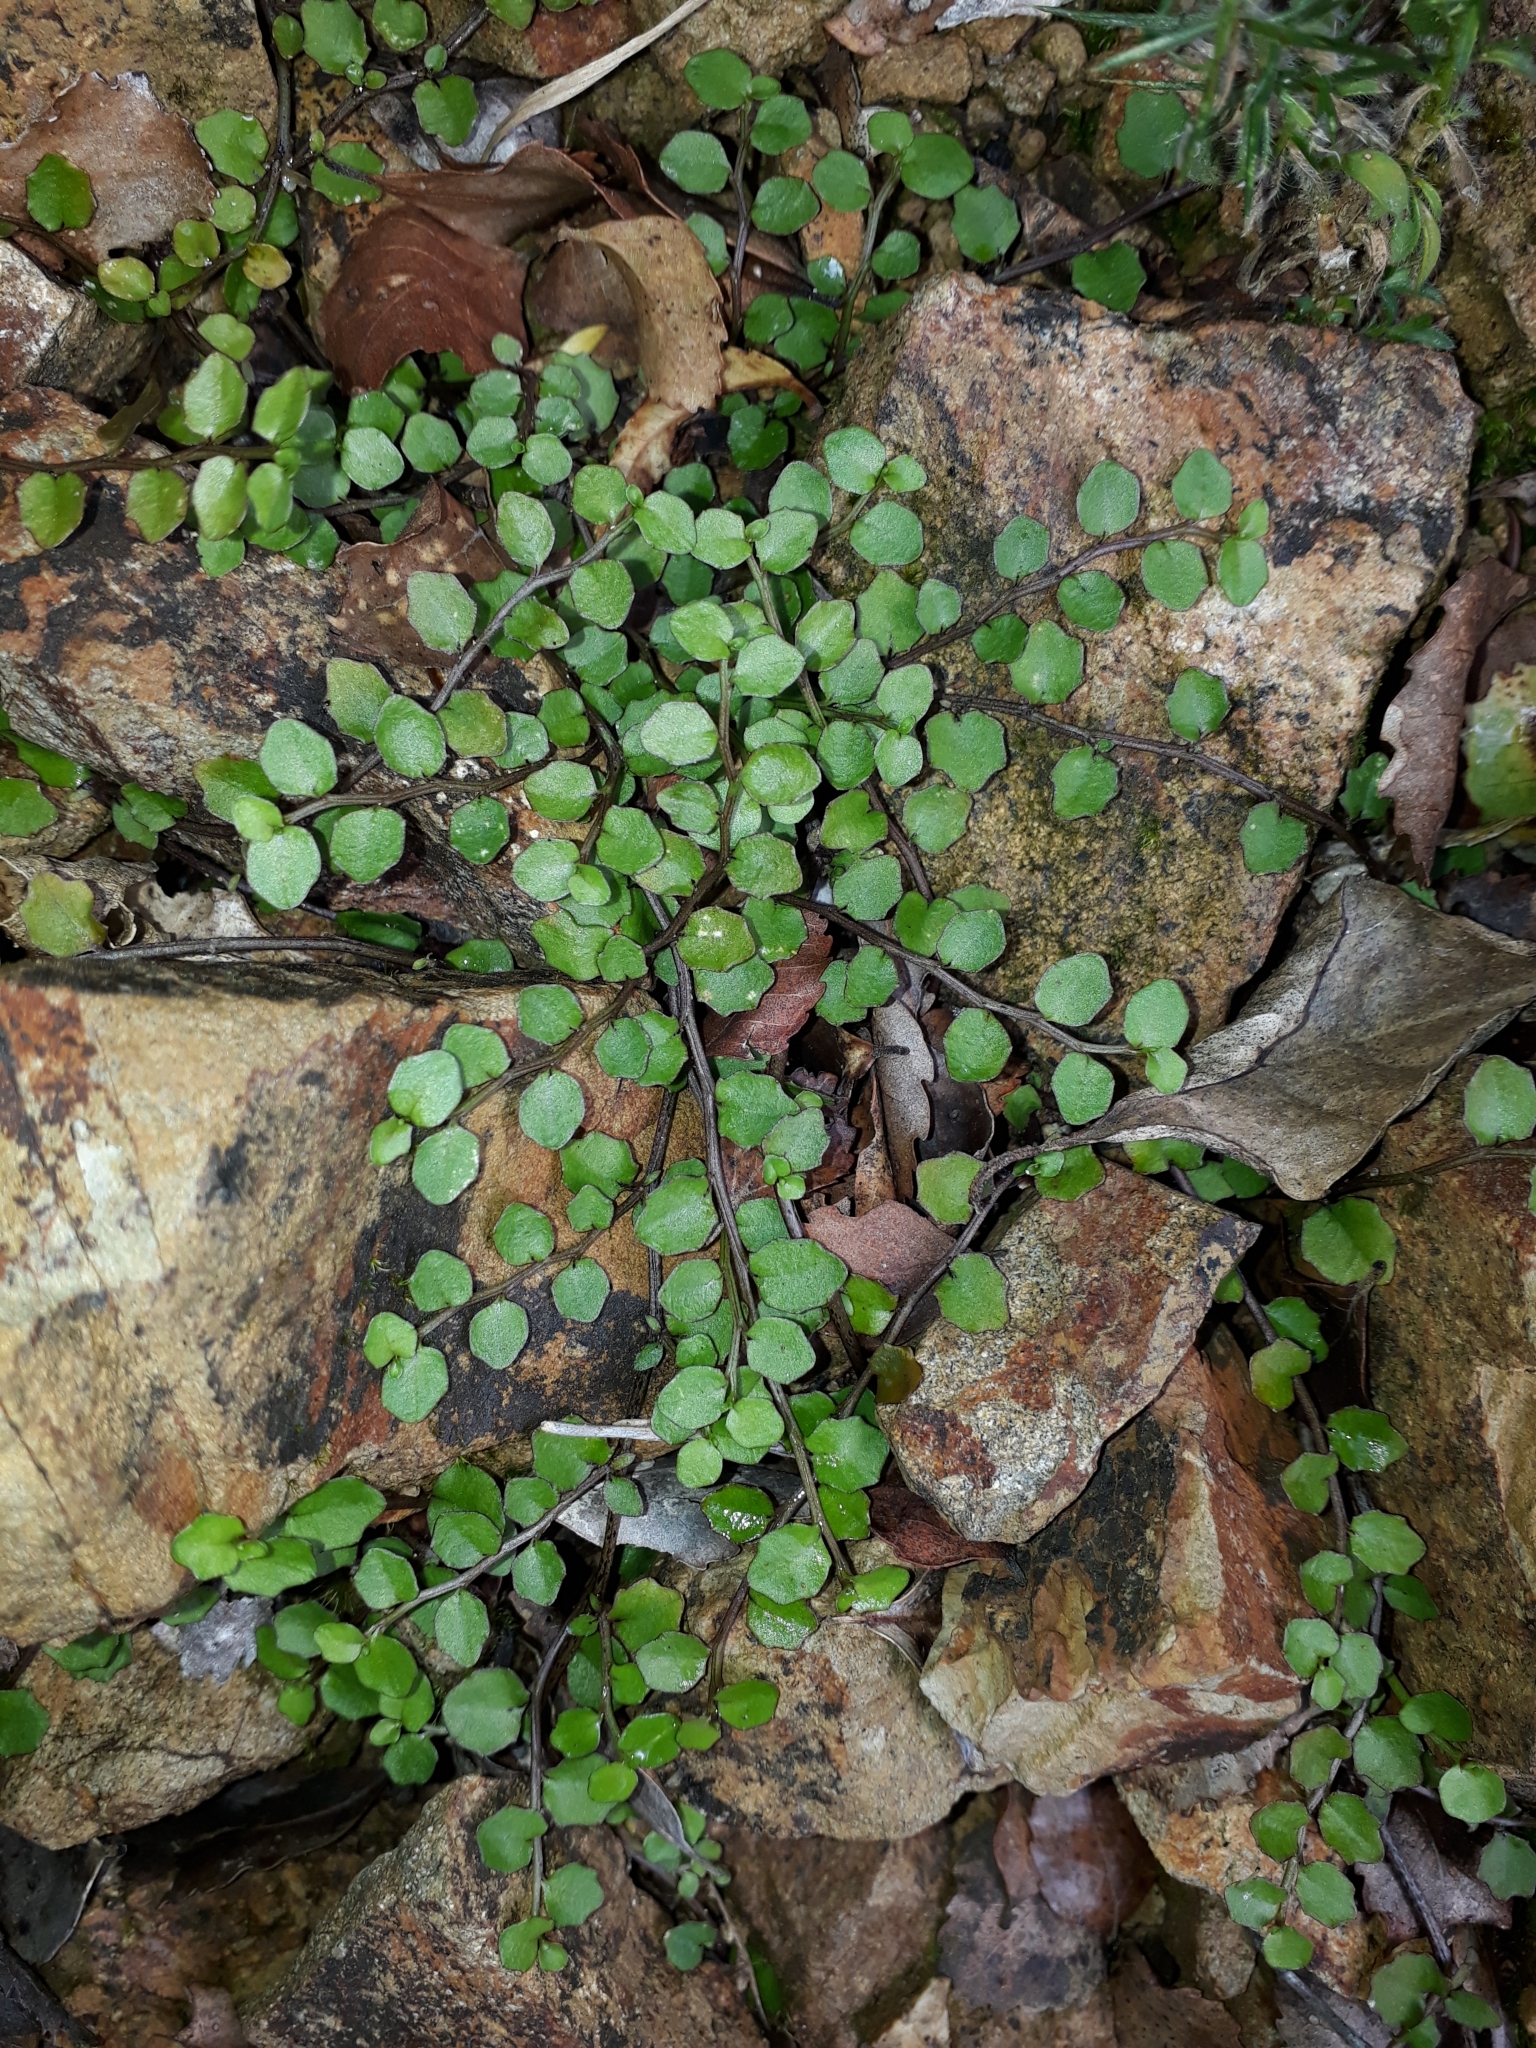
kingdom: Plantae
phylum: Tracheophyta
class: Magnoliopsida
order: Asterales
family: Campanulaceae
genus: Lobelia
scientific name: Lobelia angulata
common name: Lawn lobelia
